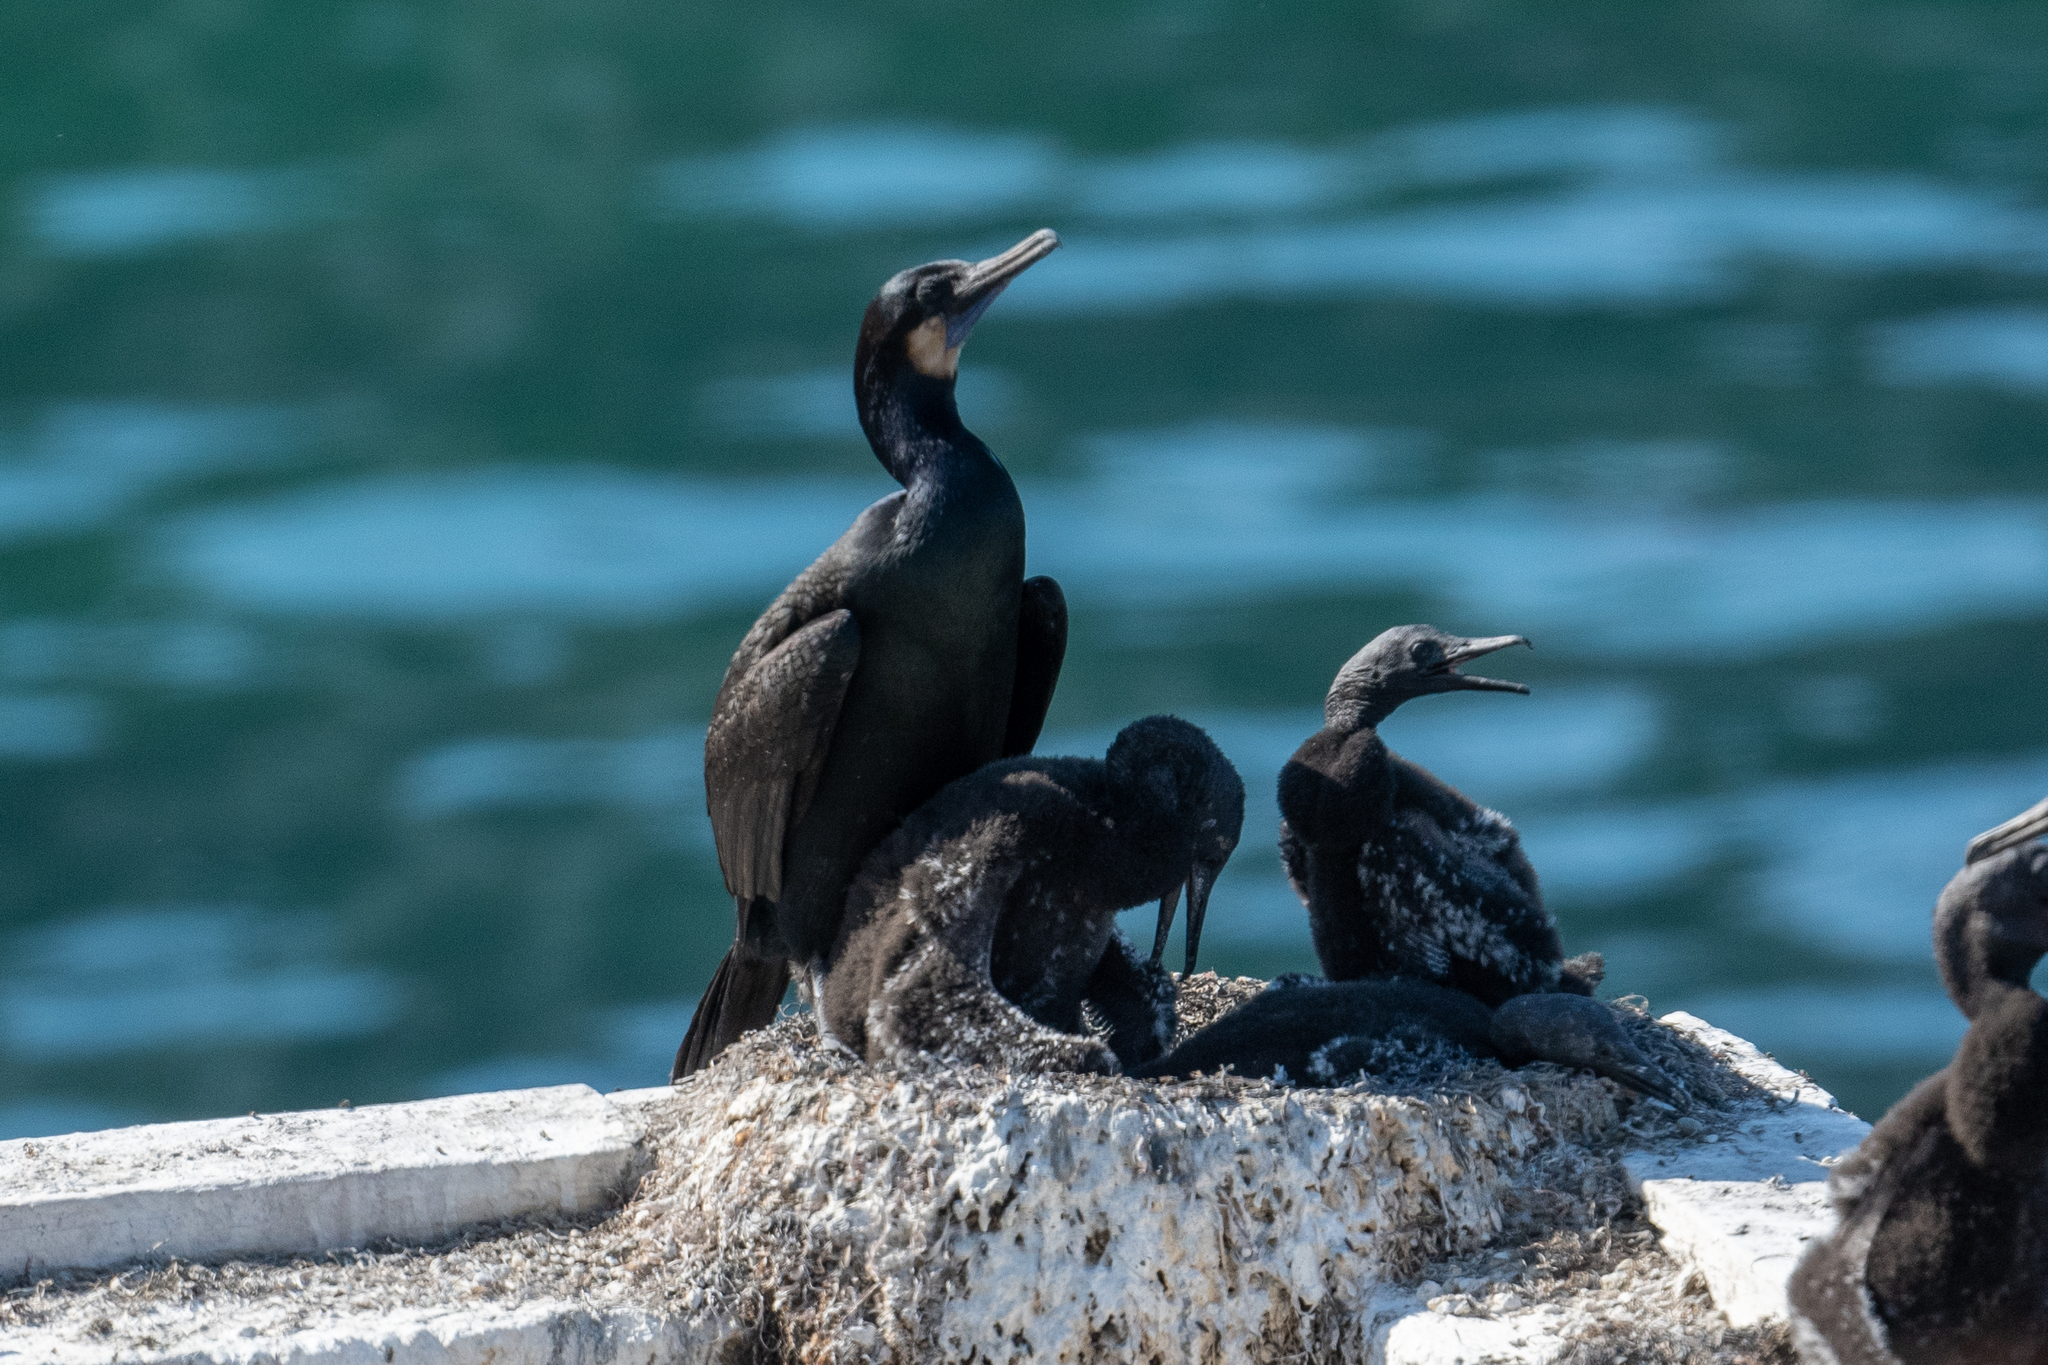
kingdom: Animalia
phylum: Chordata
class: Aves
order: Suliformes
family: Phalacrocoracidae
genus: Urile
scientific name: Urile penicillatus
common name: Brandt's cormorant
